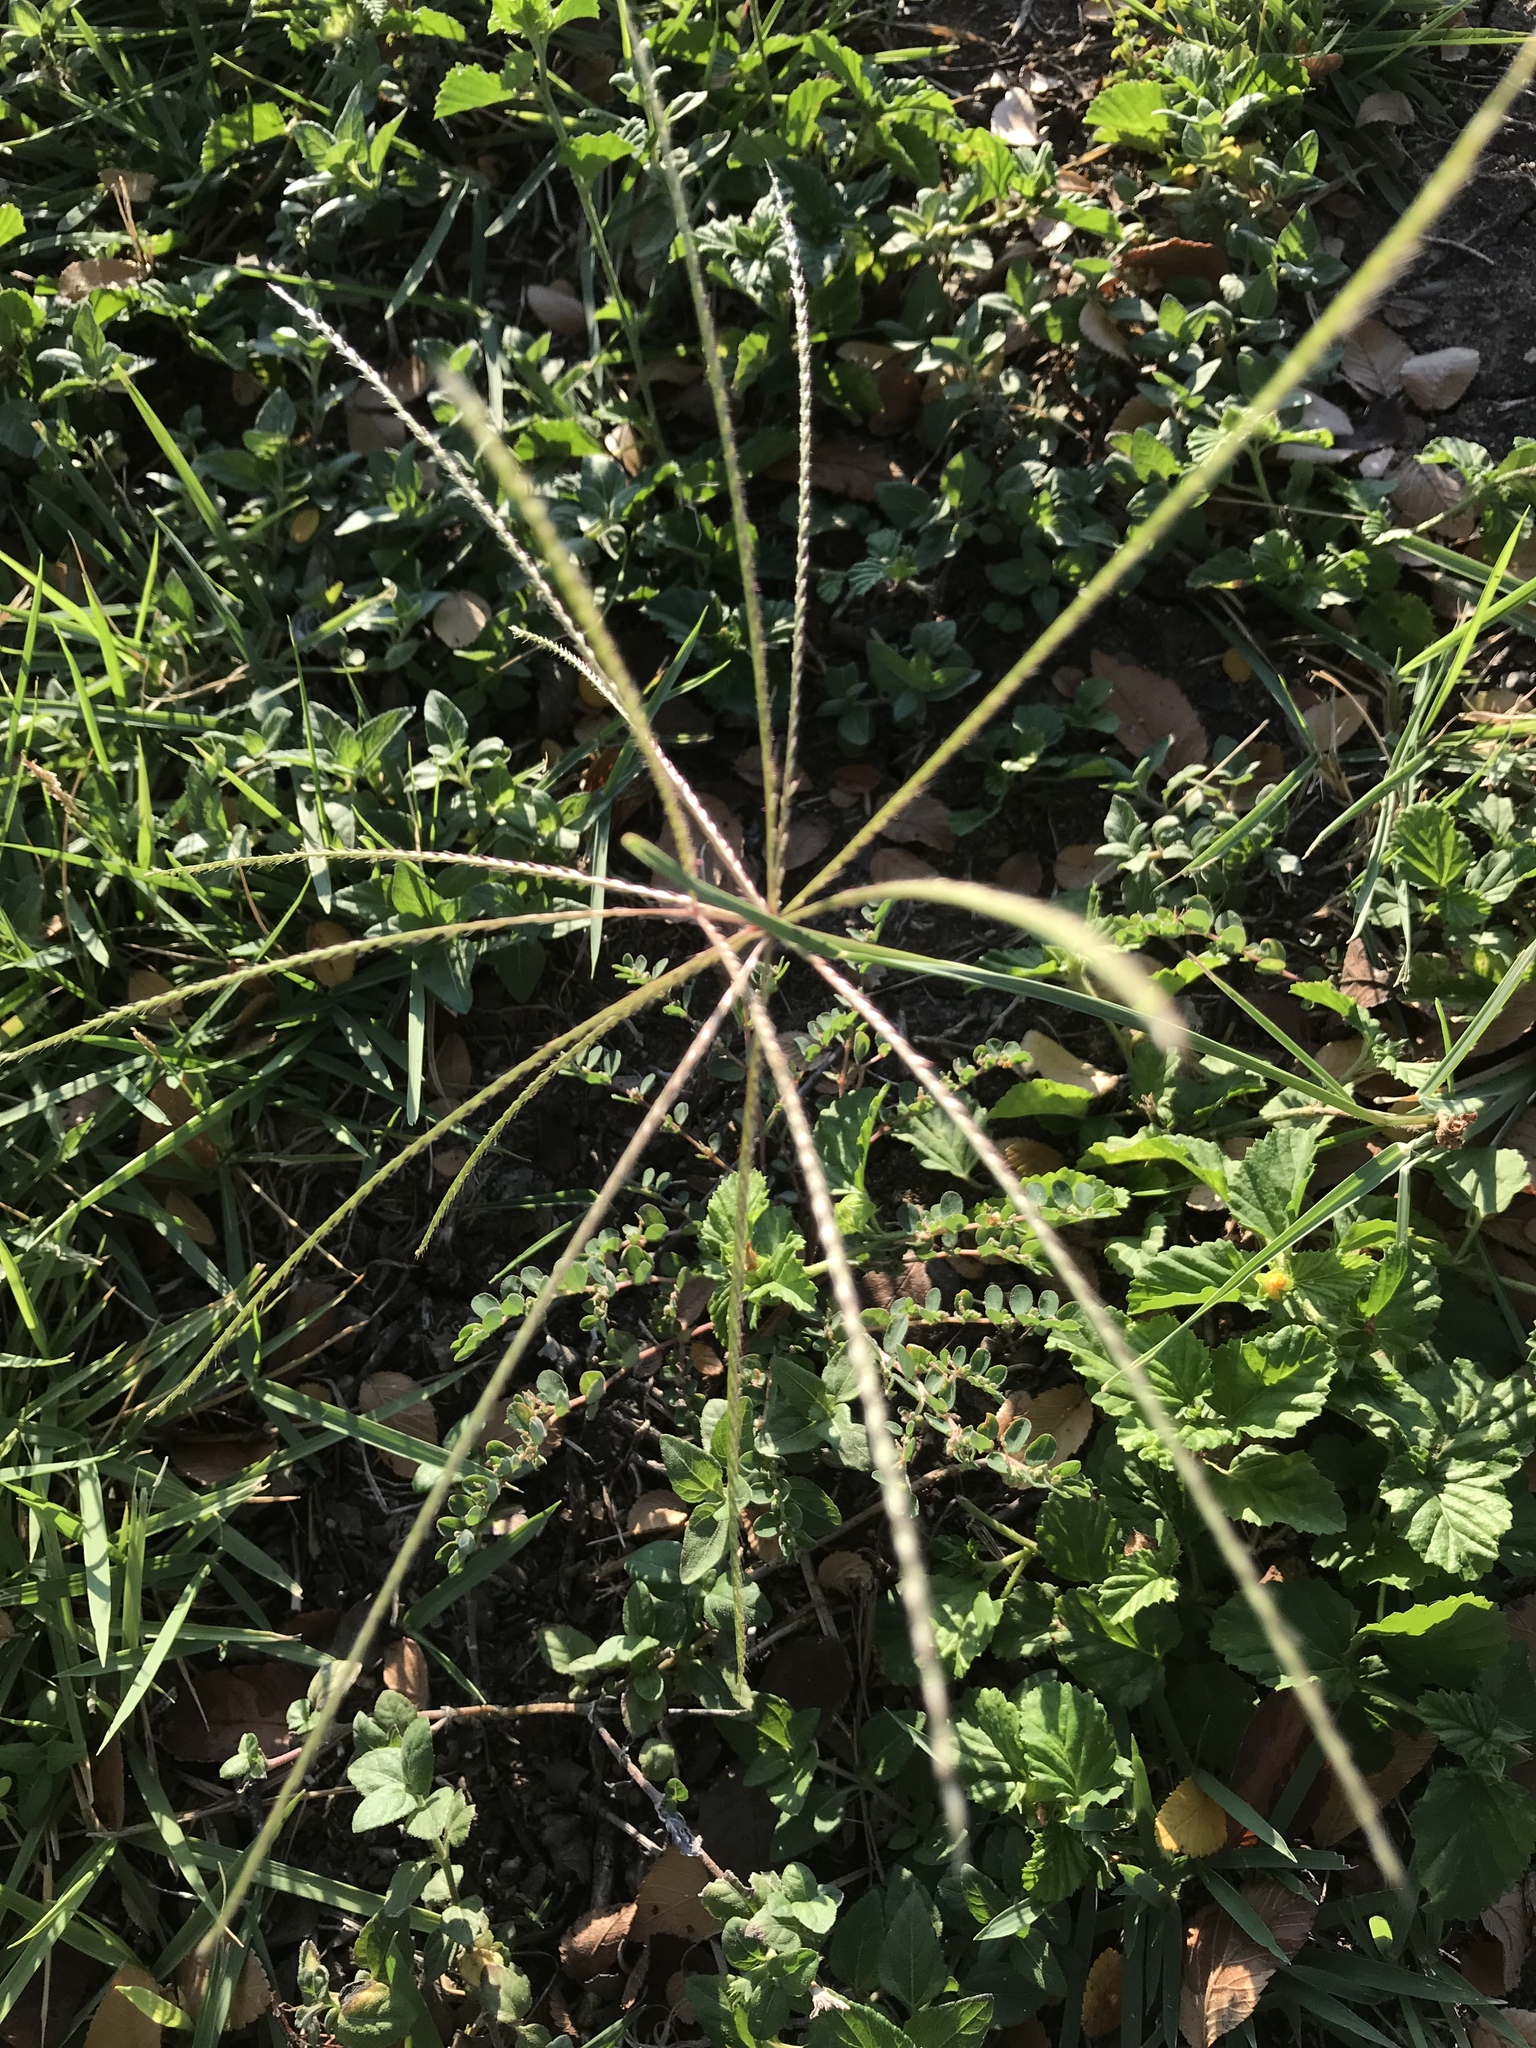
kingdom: Plantae
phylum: Tracheophyta
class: Liliopsida
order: Poales
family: Poaceae
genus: Chloris
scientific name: Chloris verticillata
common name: Tumble windmill grass
